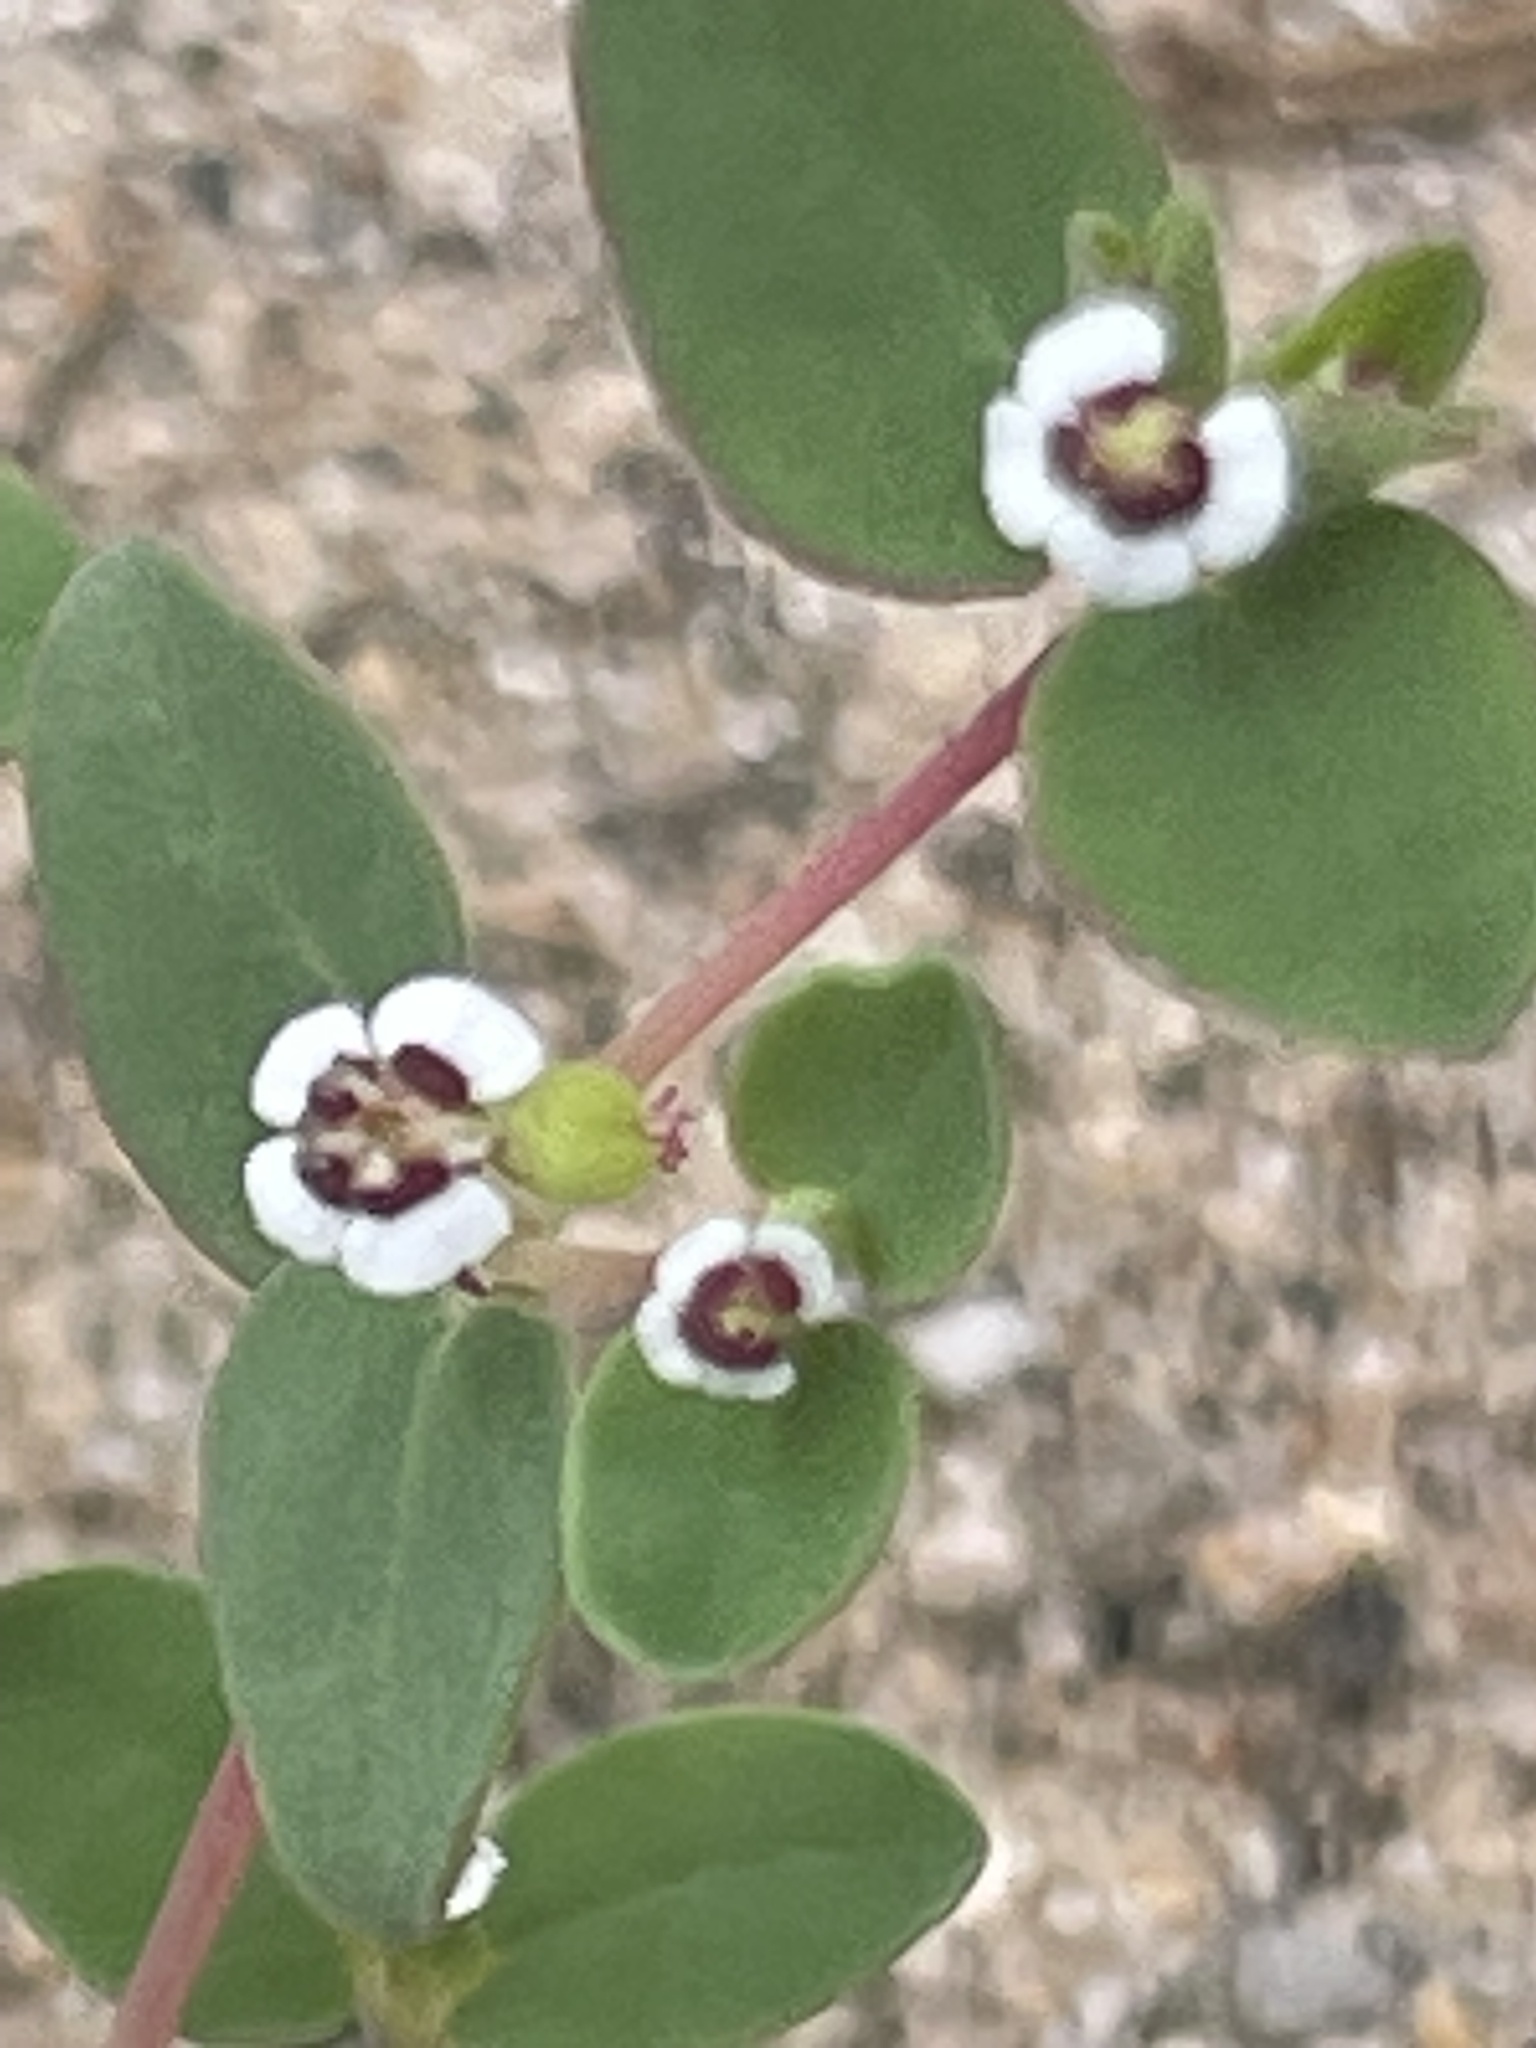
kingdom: Plantae
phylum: Tracheophyta
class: Magnoliopsida
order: Malpighiales
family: Euphorbiaceae
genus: Euphorbia
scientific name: Euphorbia polycarpa
